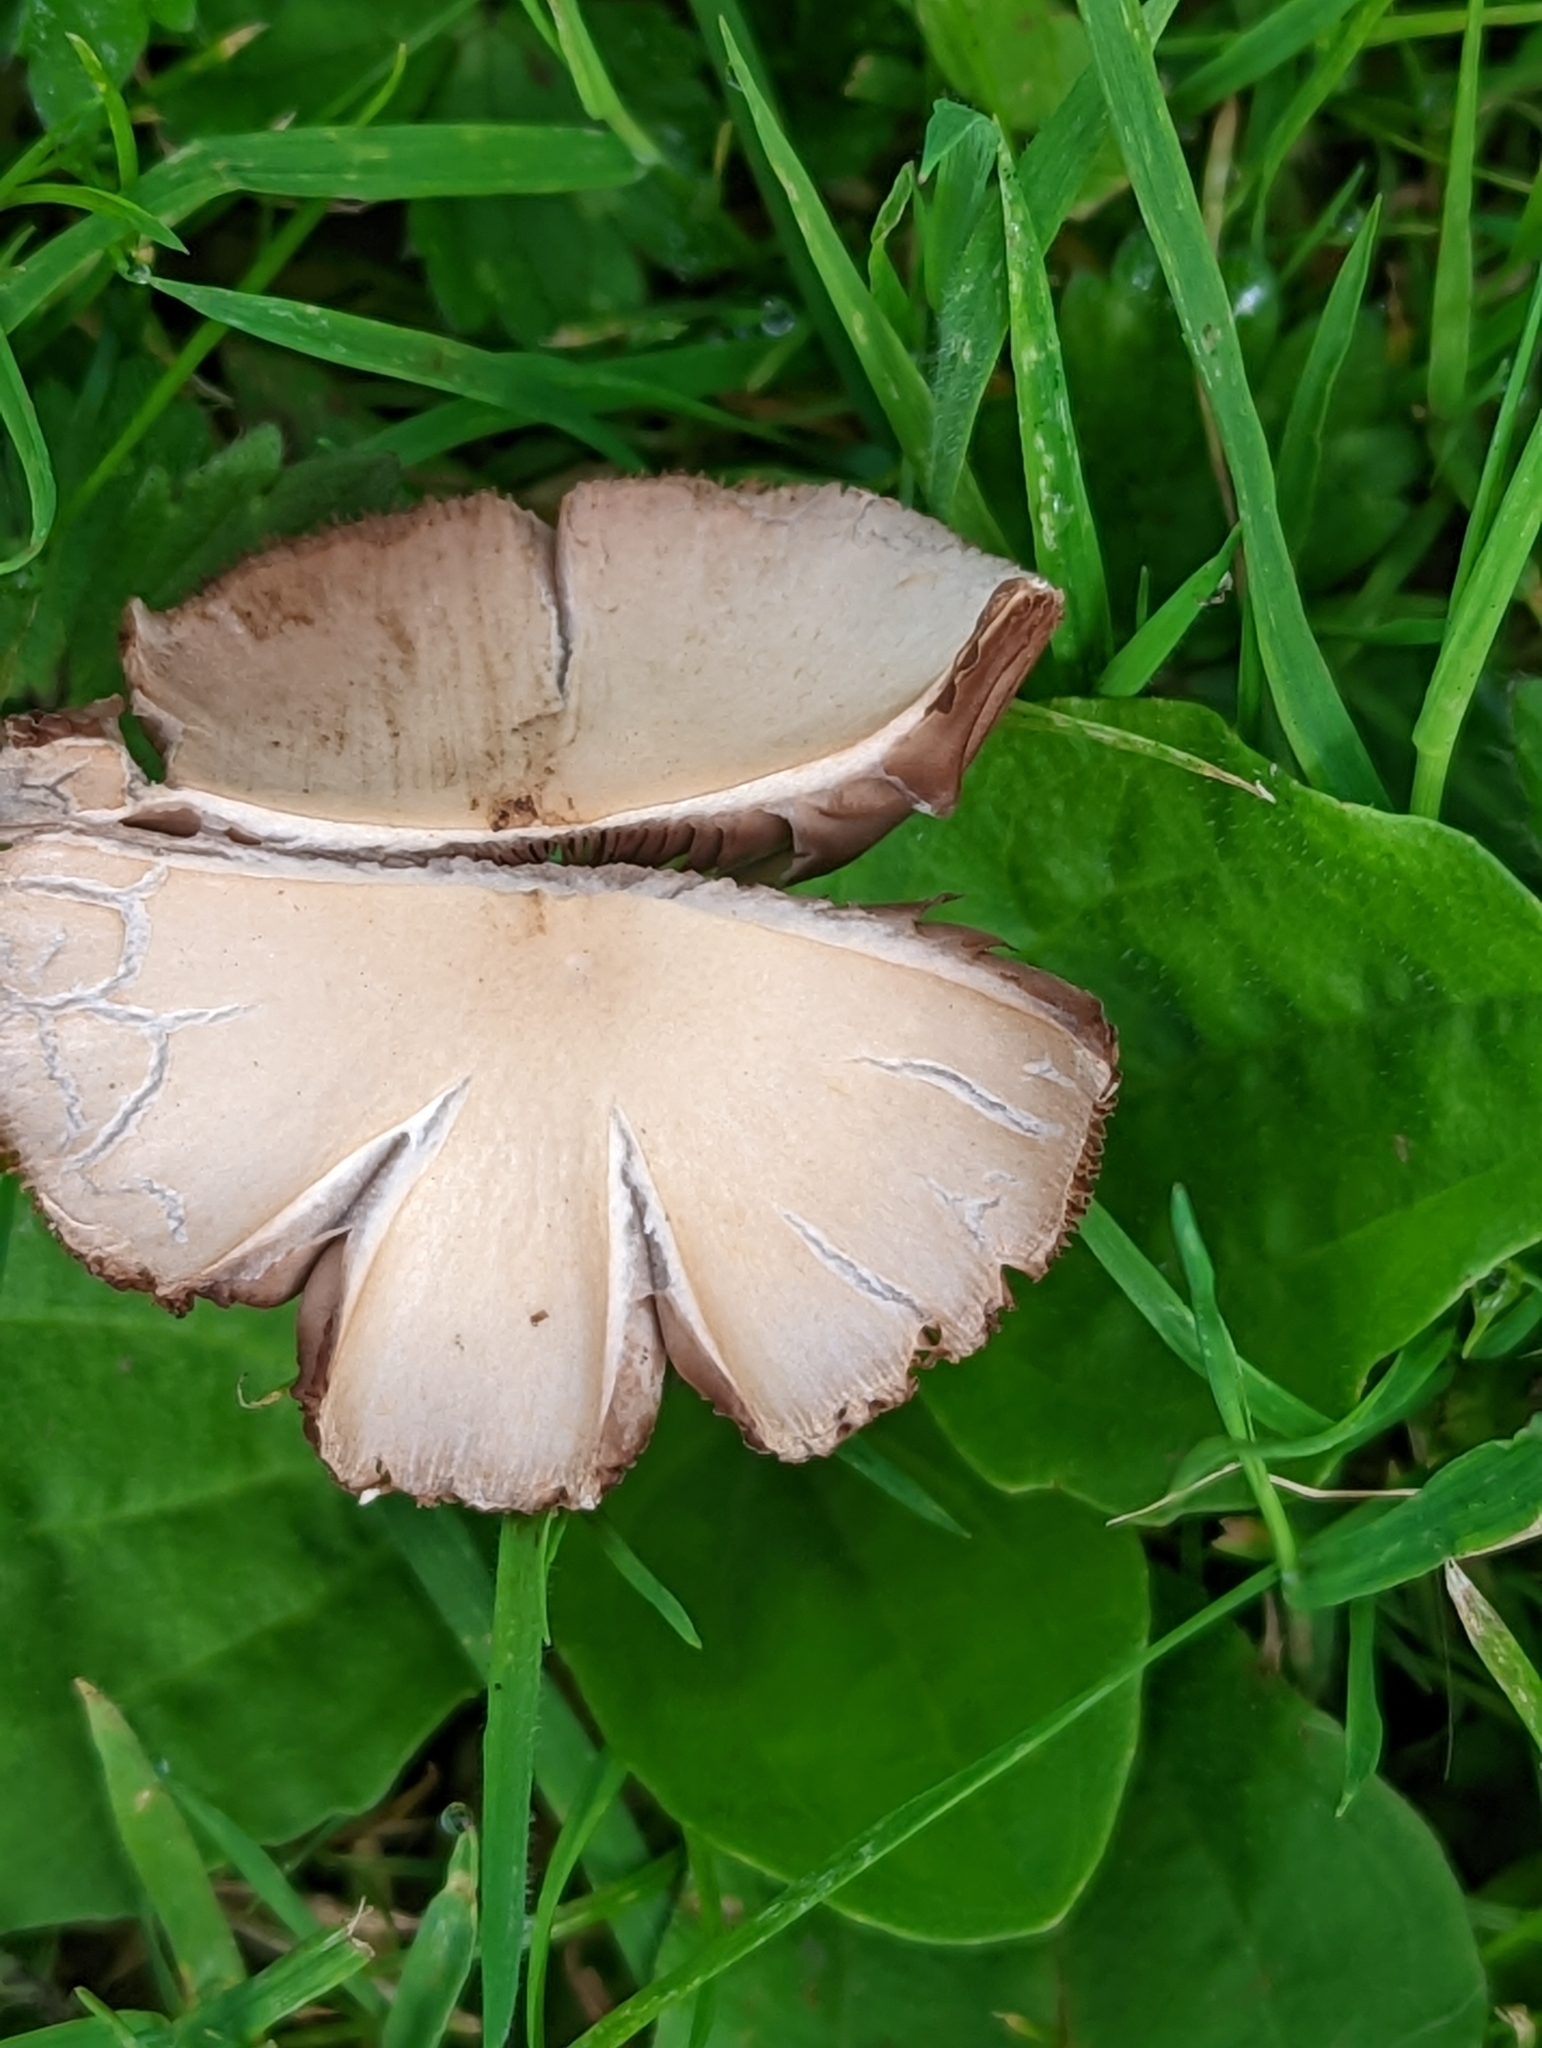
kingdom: Fungi
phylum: Basidiomycota
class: Agaricomycetes
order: Agaricales
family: Psathyrellaceae
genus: Candolleomyces
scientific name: Candolleomyces candolleanus
